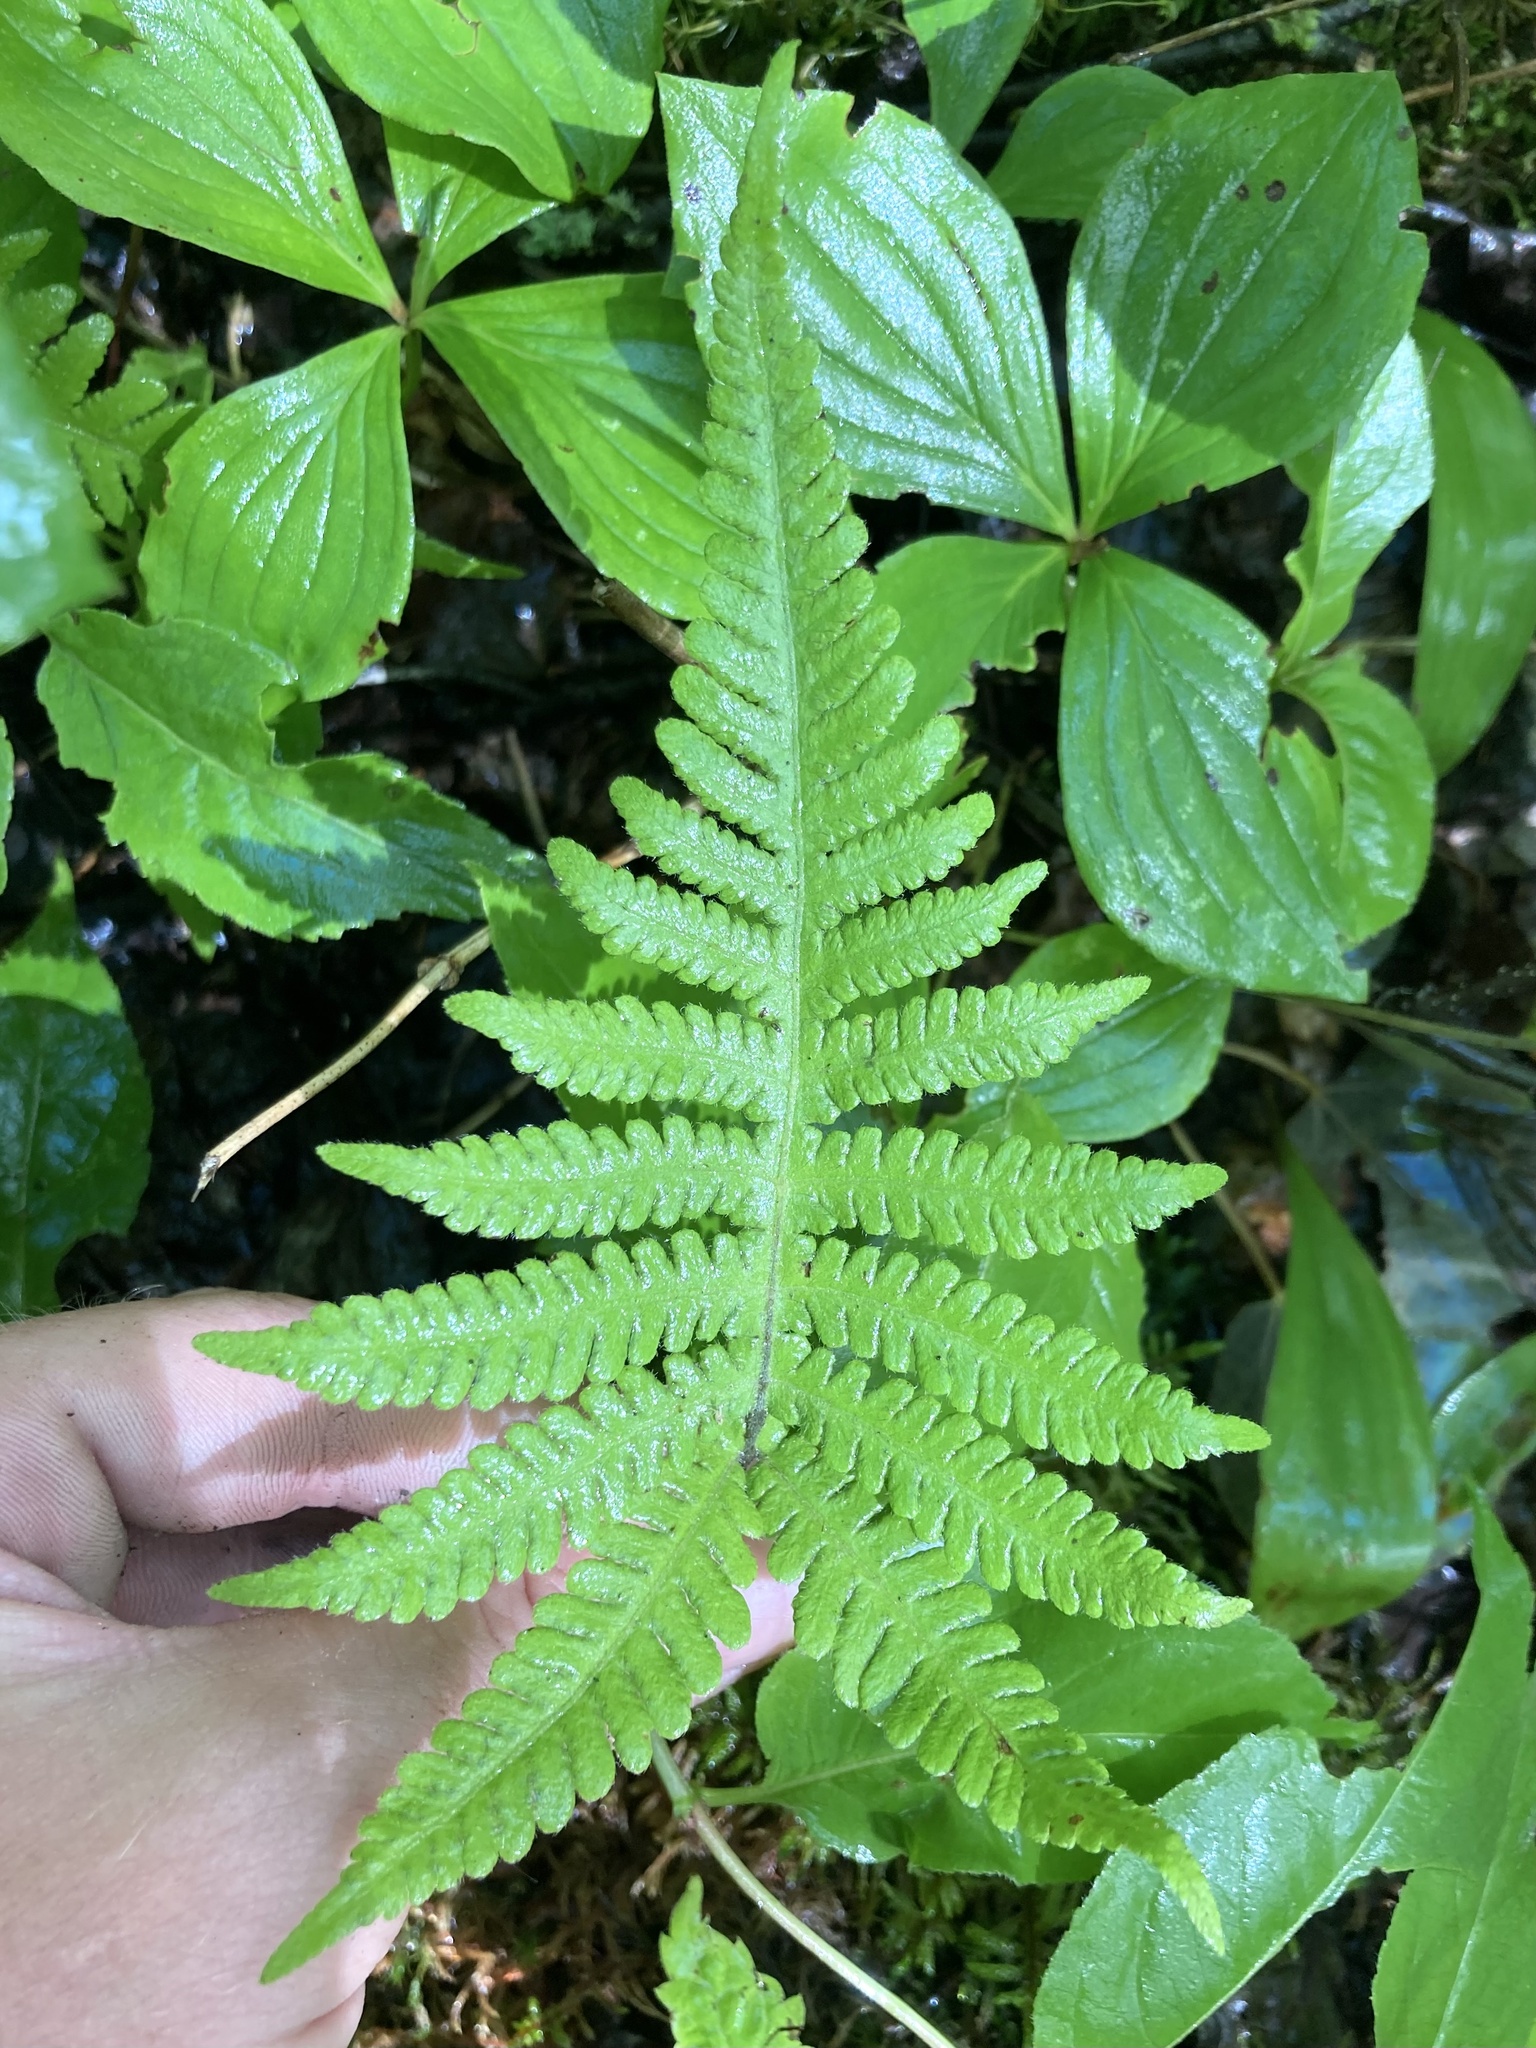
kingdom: Plantae
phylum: Tracheophyta
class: Polypodiopsida
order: Polypodiales
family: Thelypteridaceae
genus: Phegopteris
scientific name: Phegopteris connectilis
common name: Beech fern
